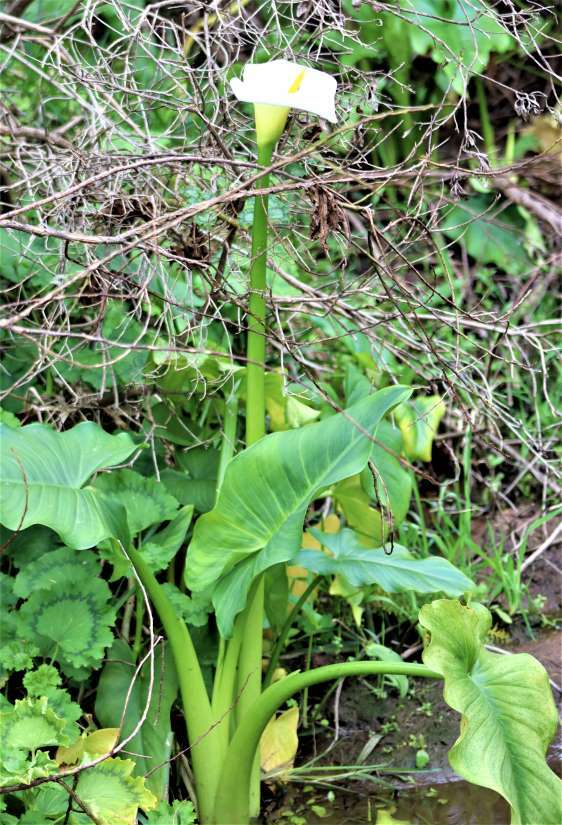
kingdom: Plantae
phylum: Tracheophyta
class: Liliopsida
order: Alismatales
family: Araceae
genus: Zantedeschia
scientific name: Zantedeschia aethiopica
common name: Altar-lily
